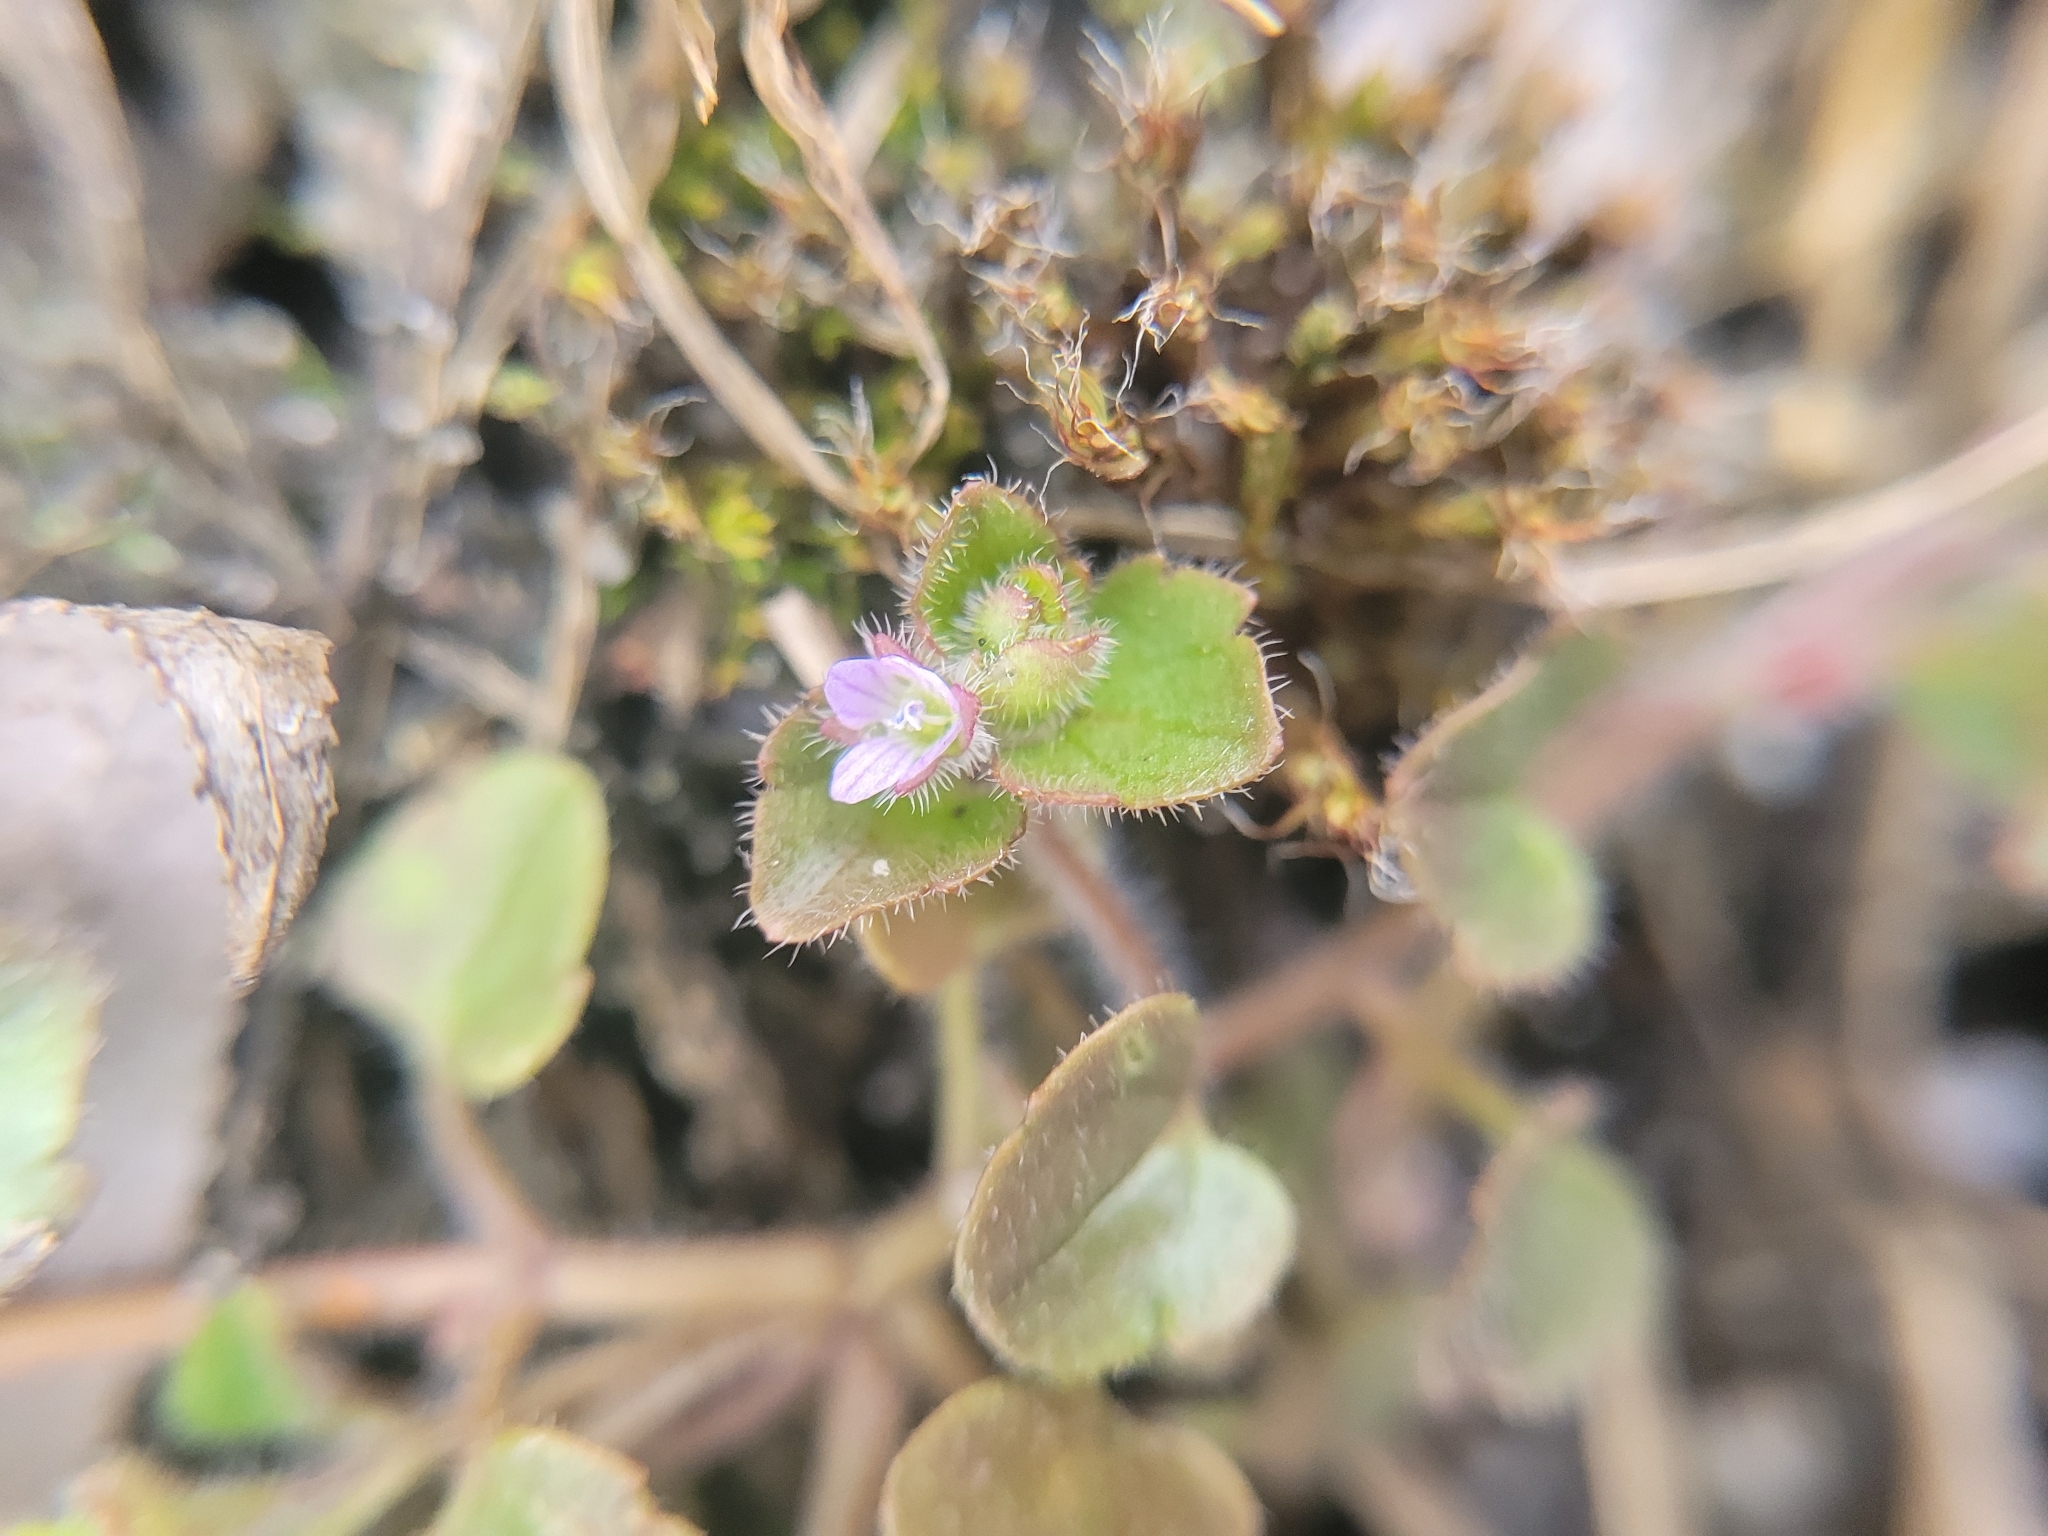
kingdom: Plantae
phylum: Tracheophyta
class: Magnoliopsida
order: Lamiales
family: Plantaginaceae
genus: Veronica
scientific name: Veronica sublobata
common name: False ivy-leaved speedwell
